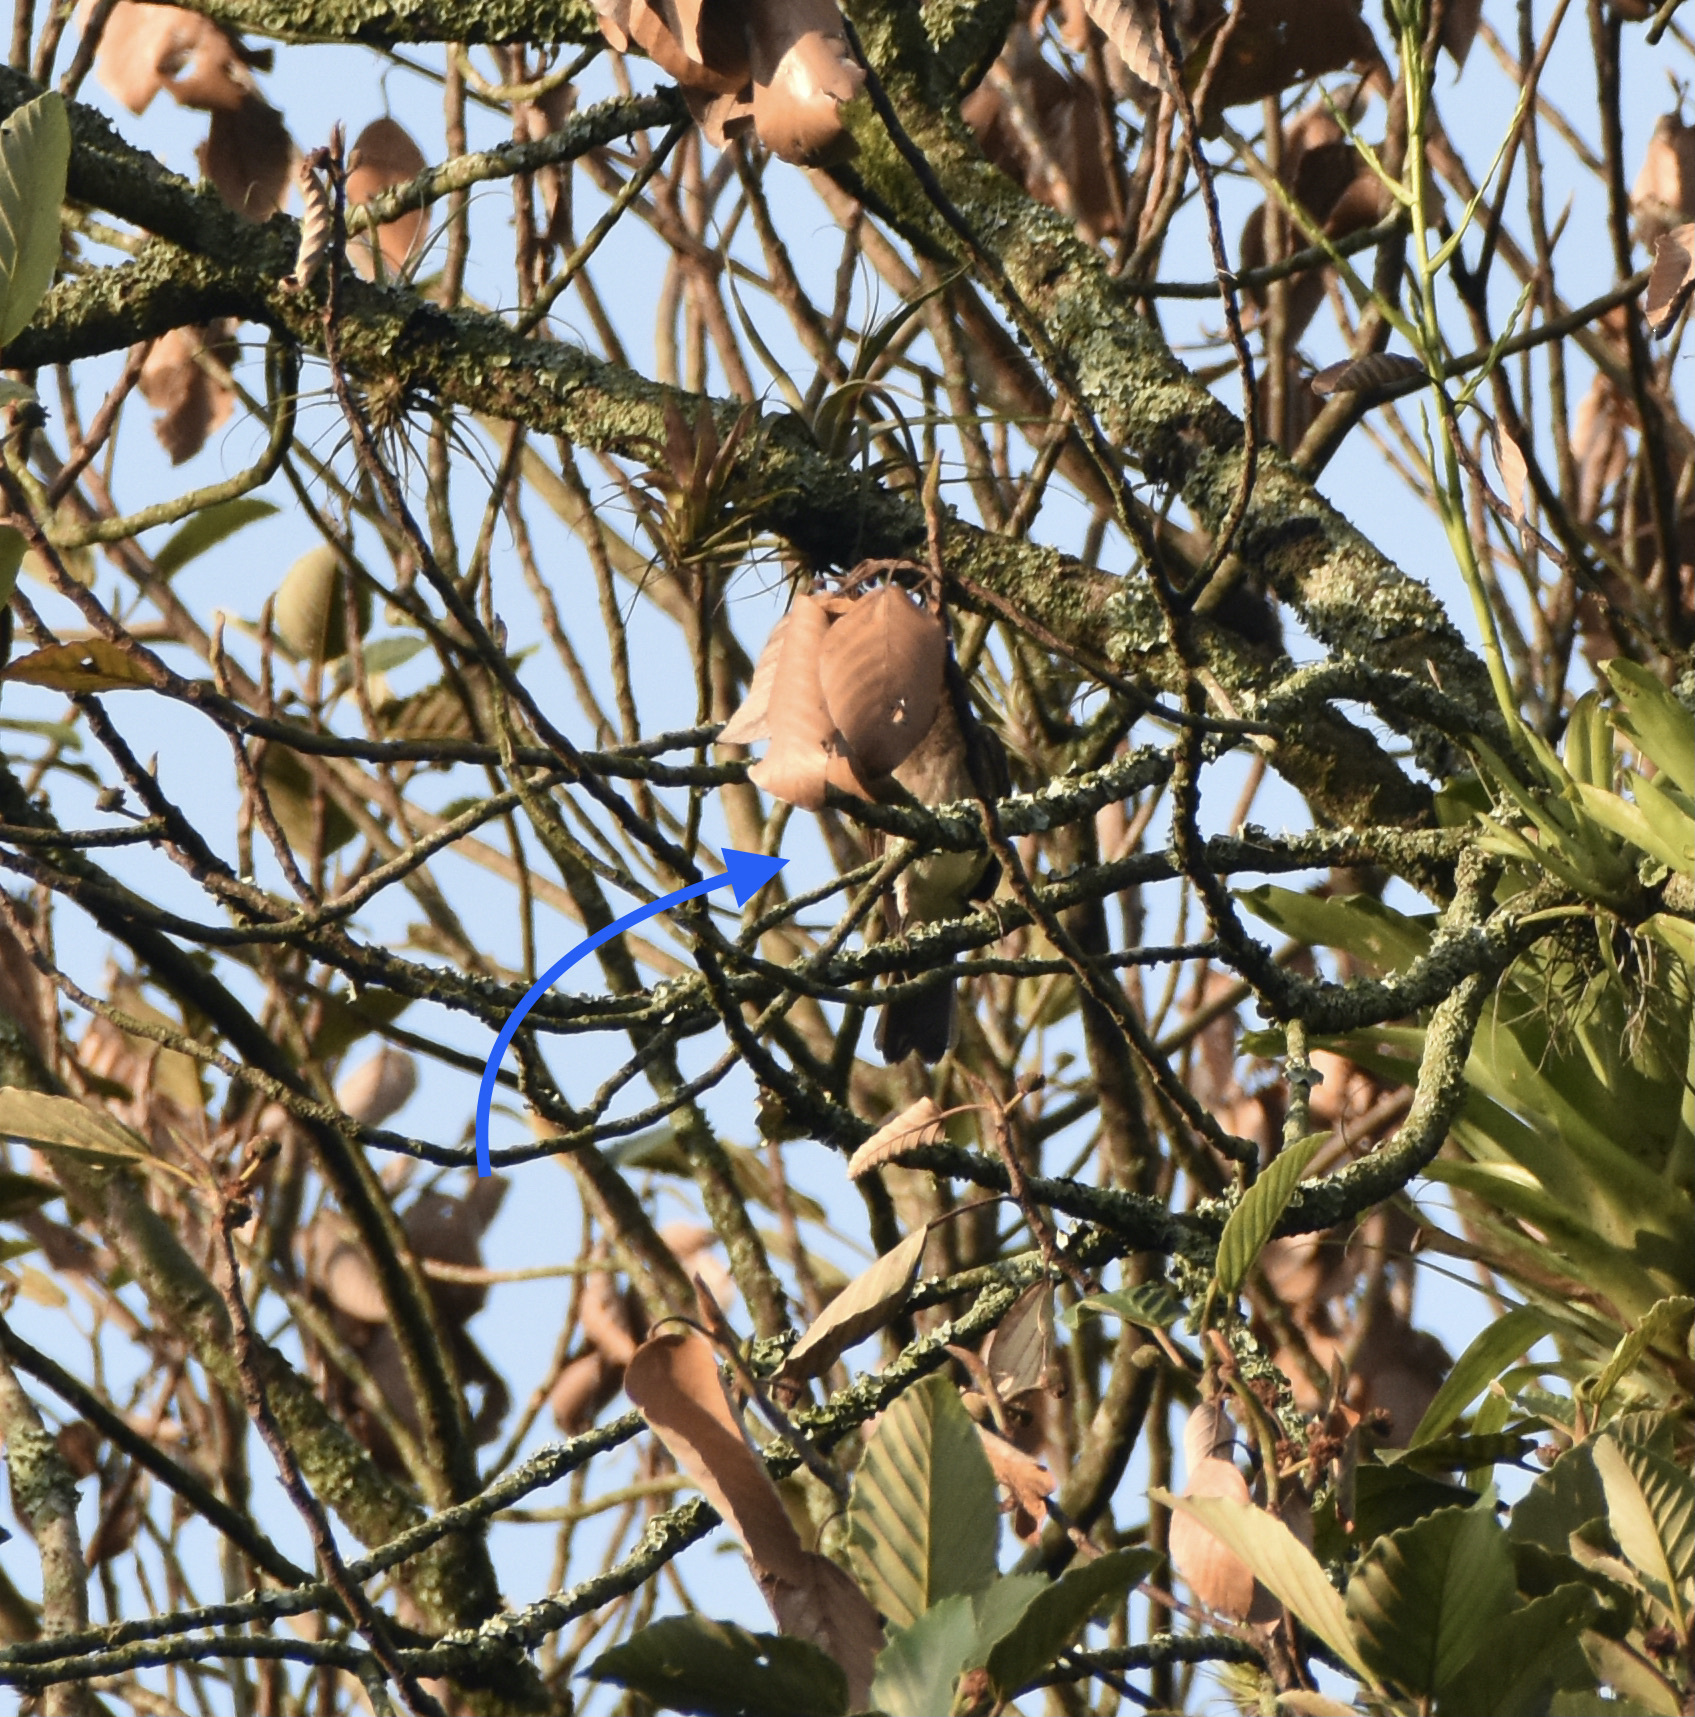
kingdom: Animalia
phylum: Chordata
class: Aves
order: Passeriformes
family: Turdidae
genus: Turdus
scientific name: Turdus ignobilis
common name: Black-billed thrush
